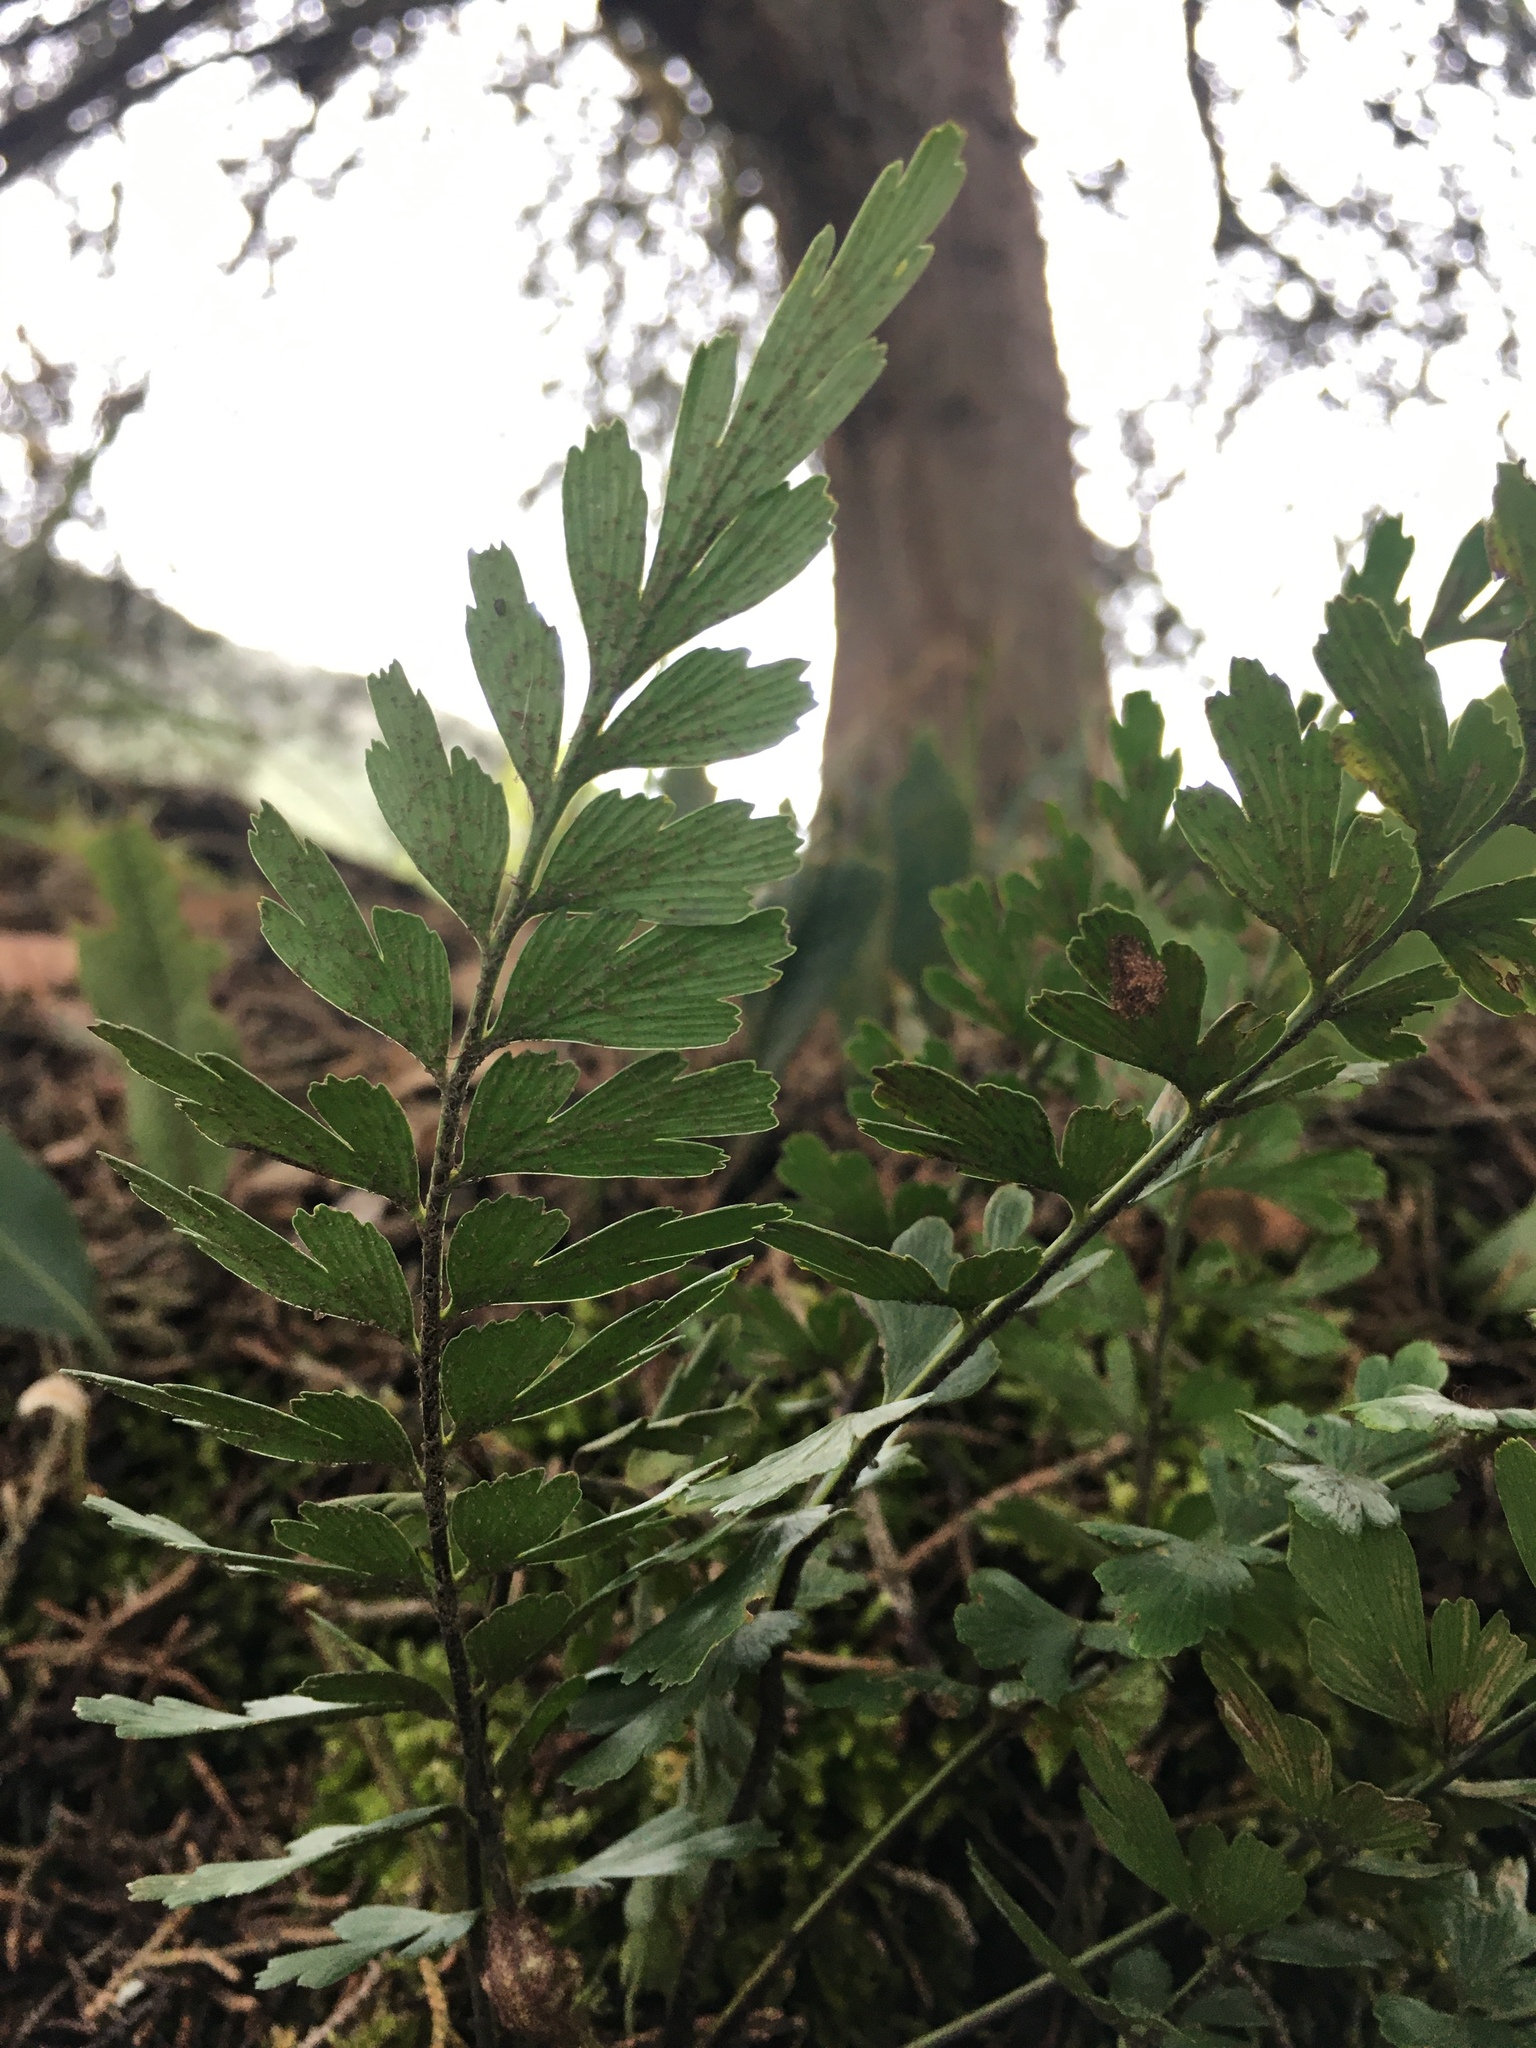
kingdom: Plantae
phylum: Tracheophyta
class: Polypodiopsida
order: Polypodiales
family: Aspleniaceae
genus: Asplenium
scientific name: Asplenium praemorsum
